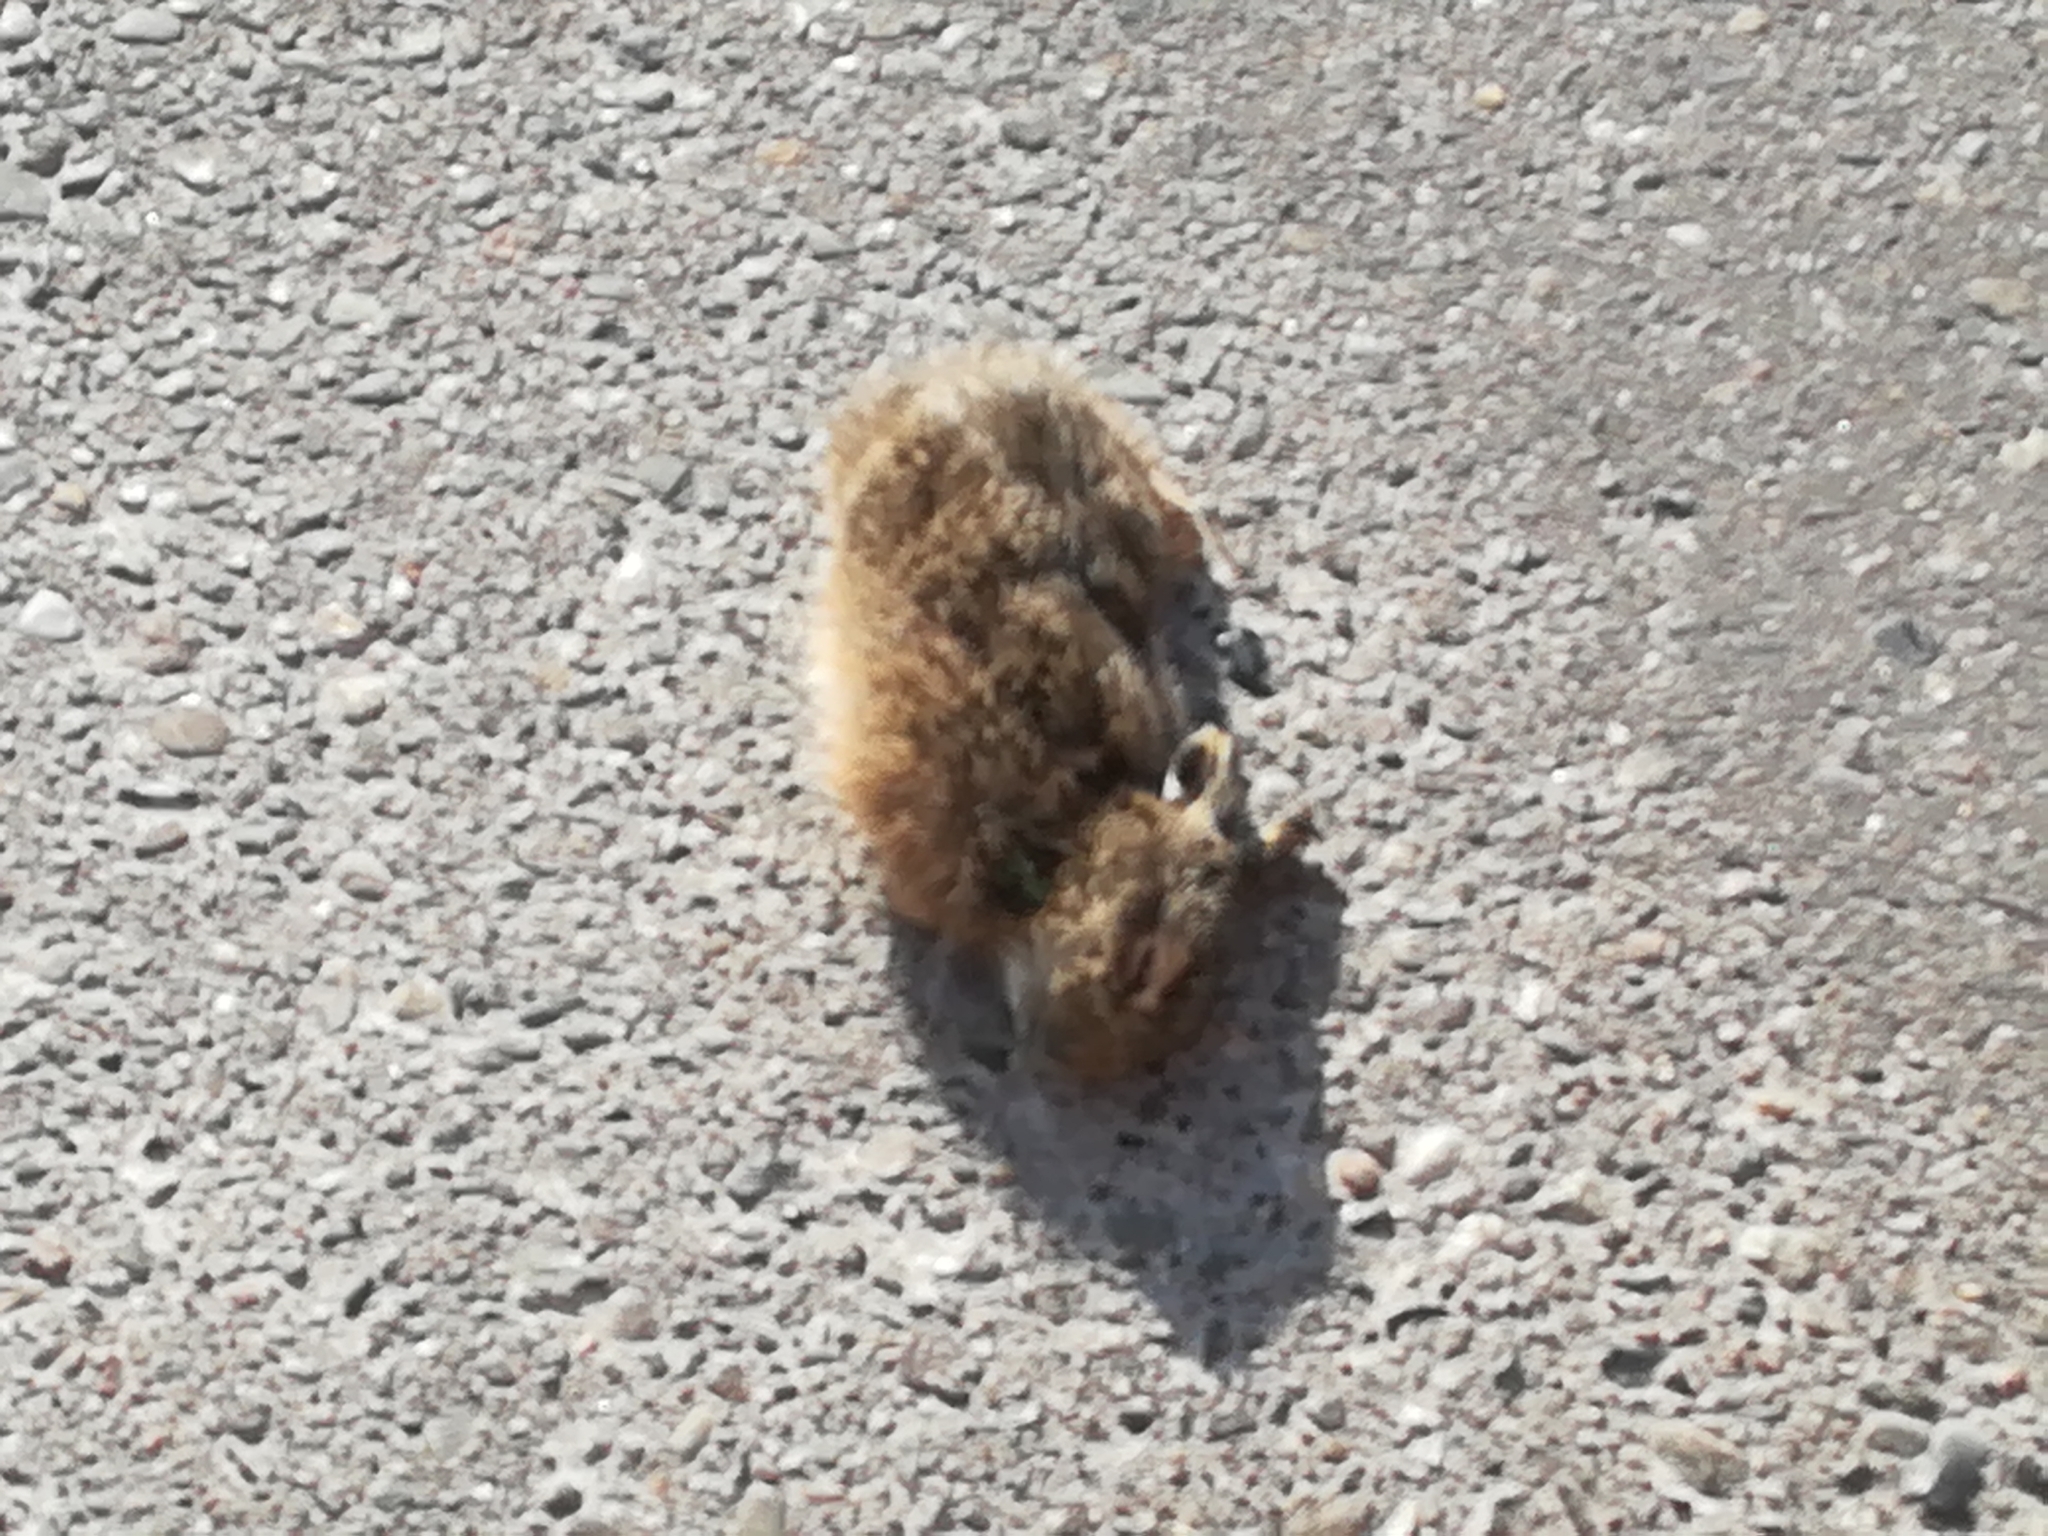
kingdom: Animalia
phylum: Chordata
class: Mammalia
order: Lagomorpha
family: Leporidae
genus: Lepus
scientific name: Lepus europaeus
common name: European hare
